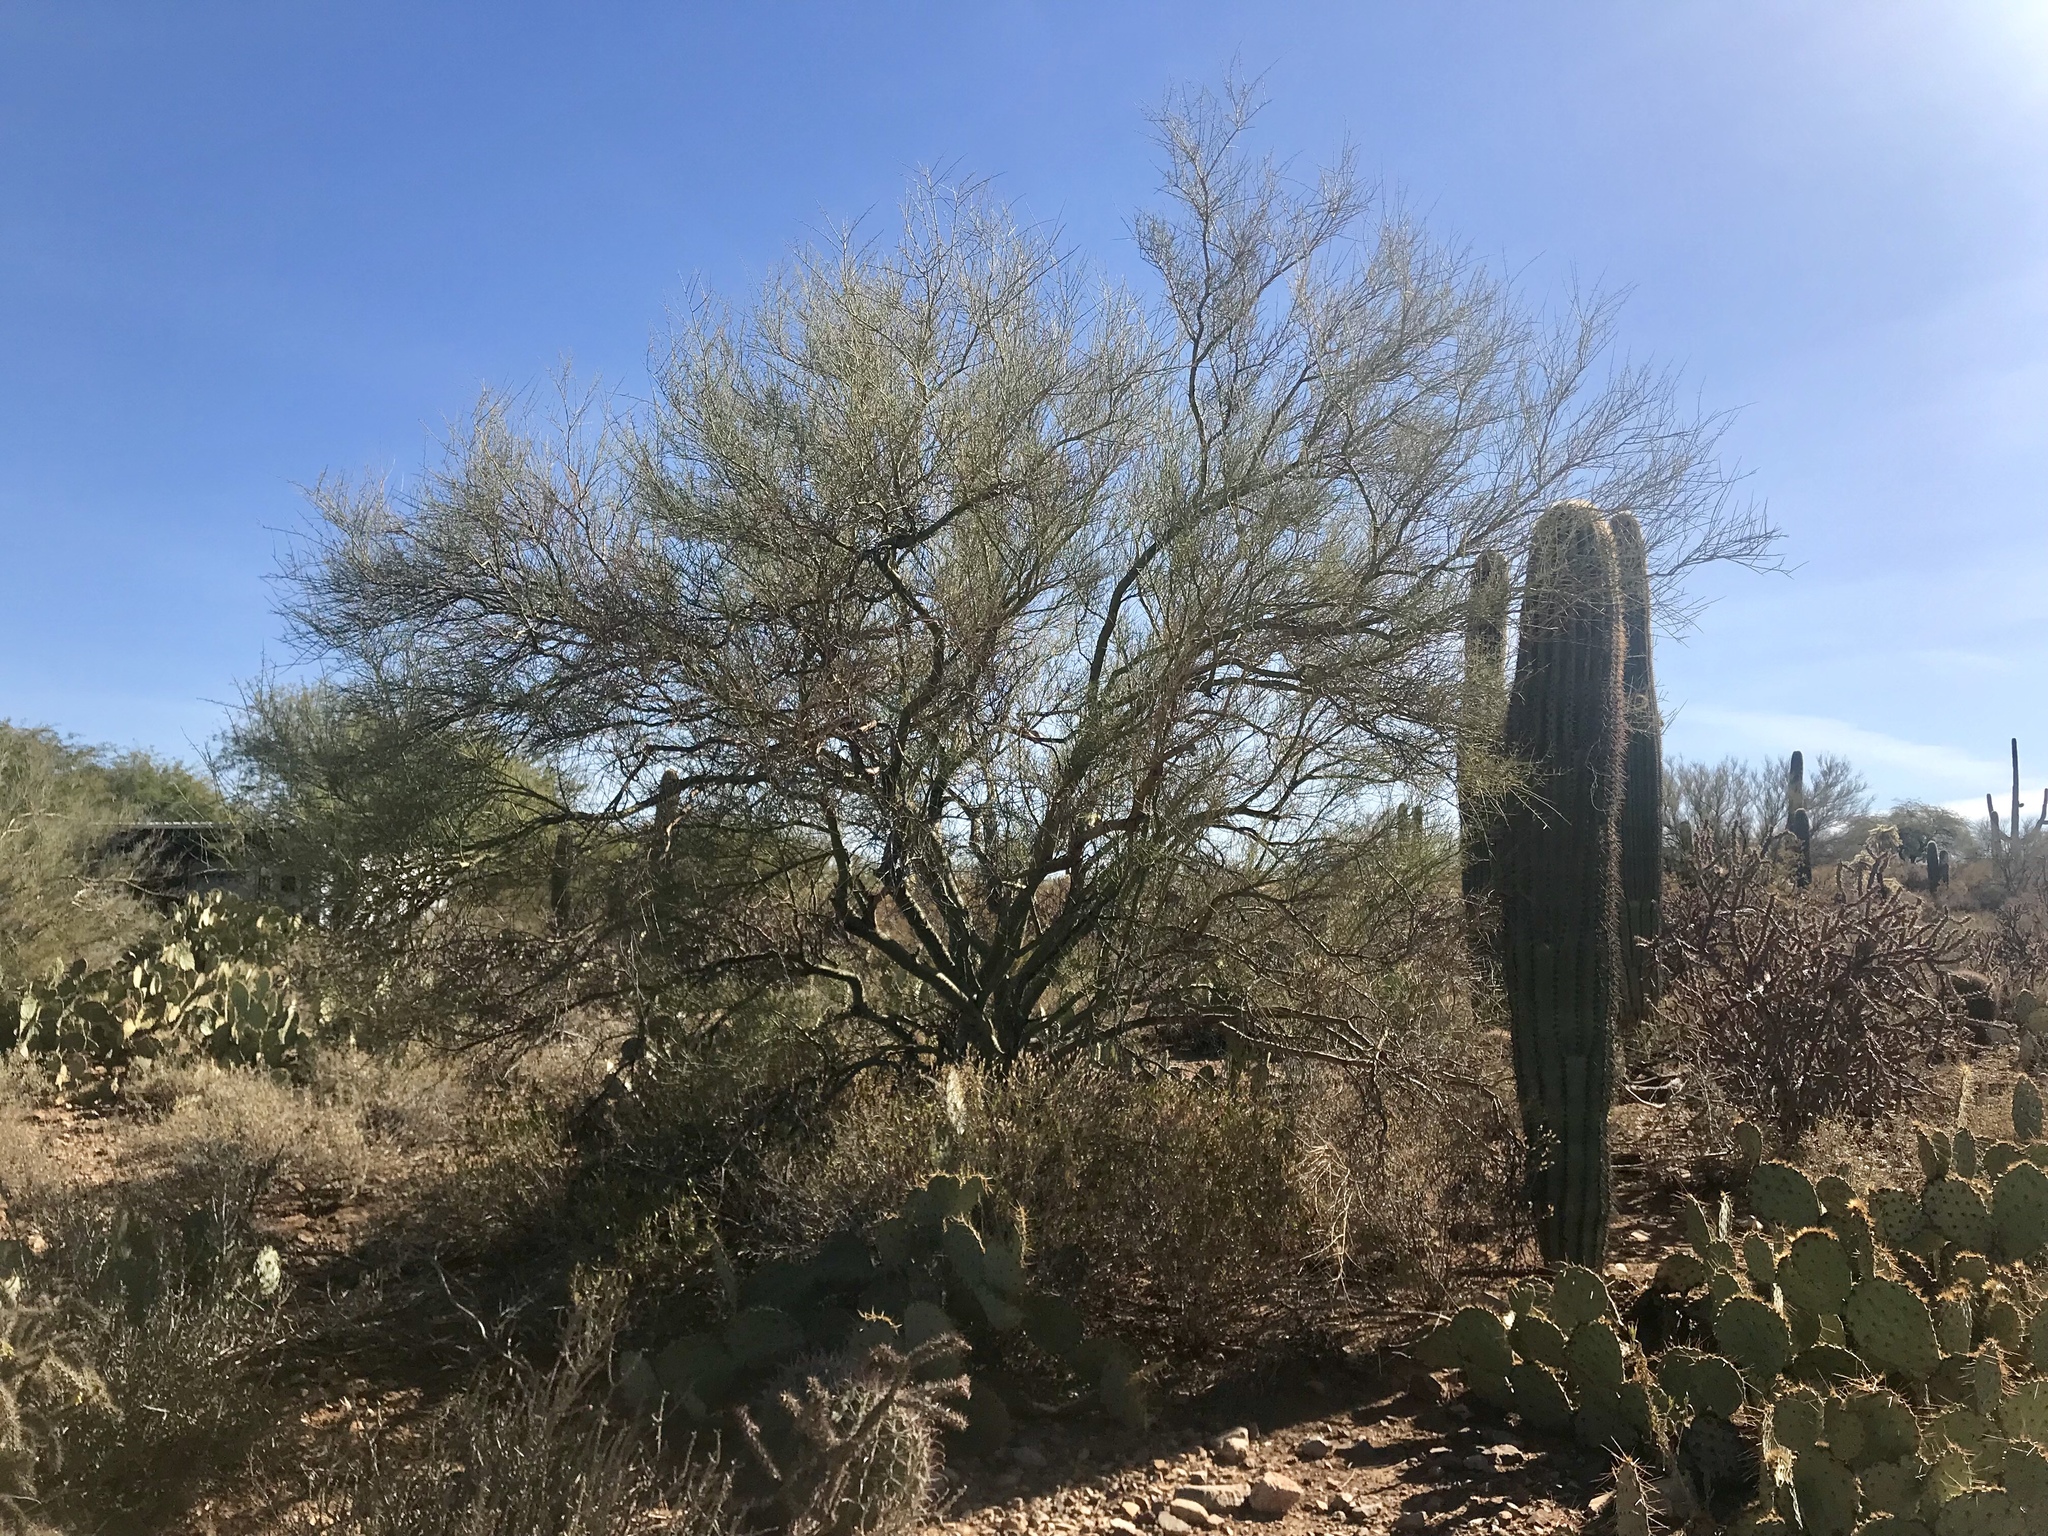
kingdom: Plantae
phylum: Tracheophyta
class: Magnoliopsida
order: Fabales
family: Fabaceae
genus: Parkinsonia
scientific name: Parkinsonia microphylla
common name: Yellow paloverde
